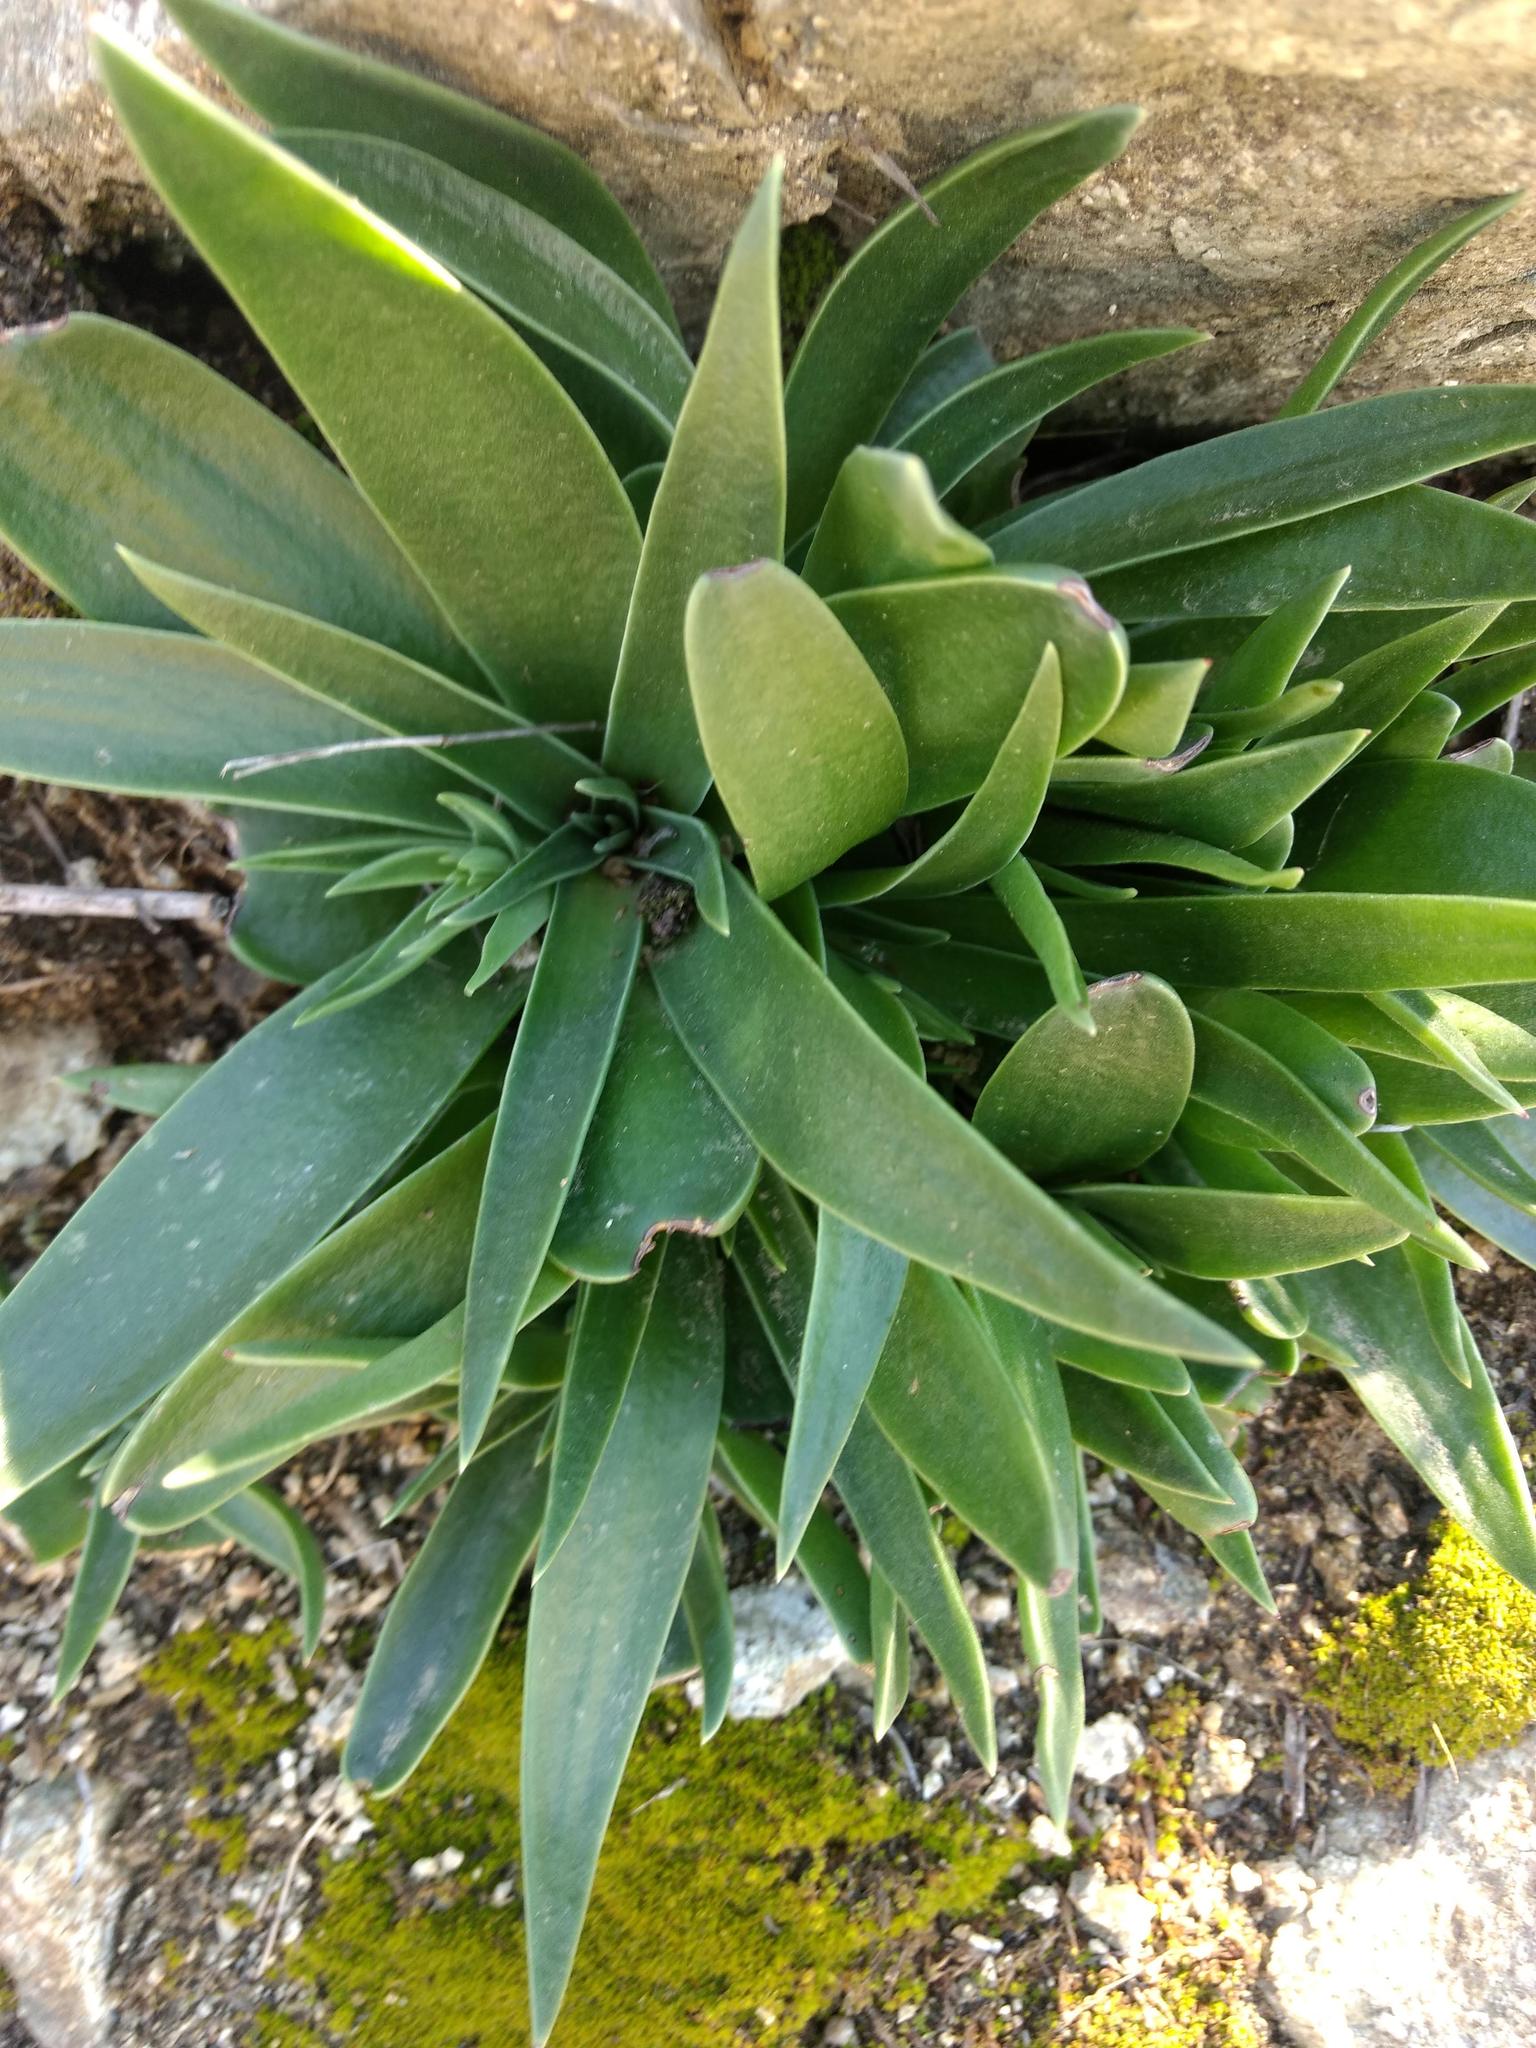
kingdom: Plantae
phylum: Tracheophyta
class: Magnoliopsida
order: Saxifragales
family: Crassulaceae
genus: Dudleya
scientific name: Dudleya lanceolata
